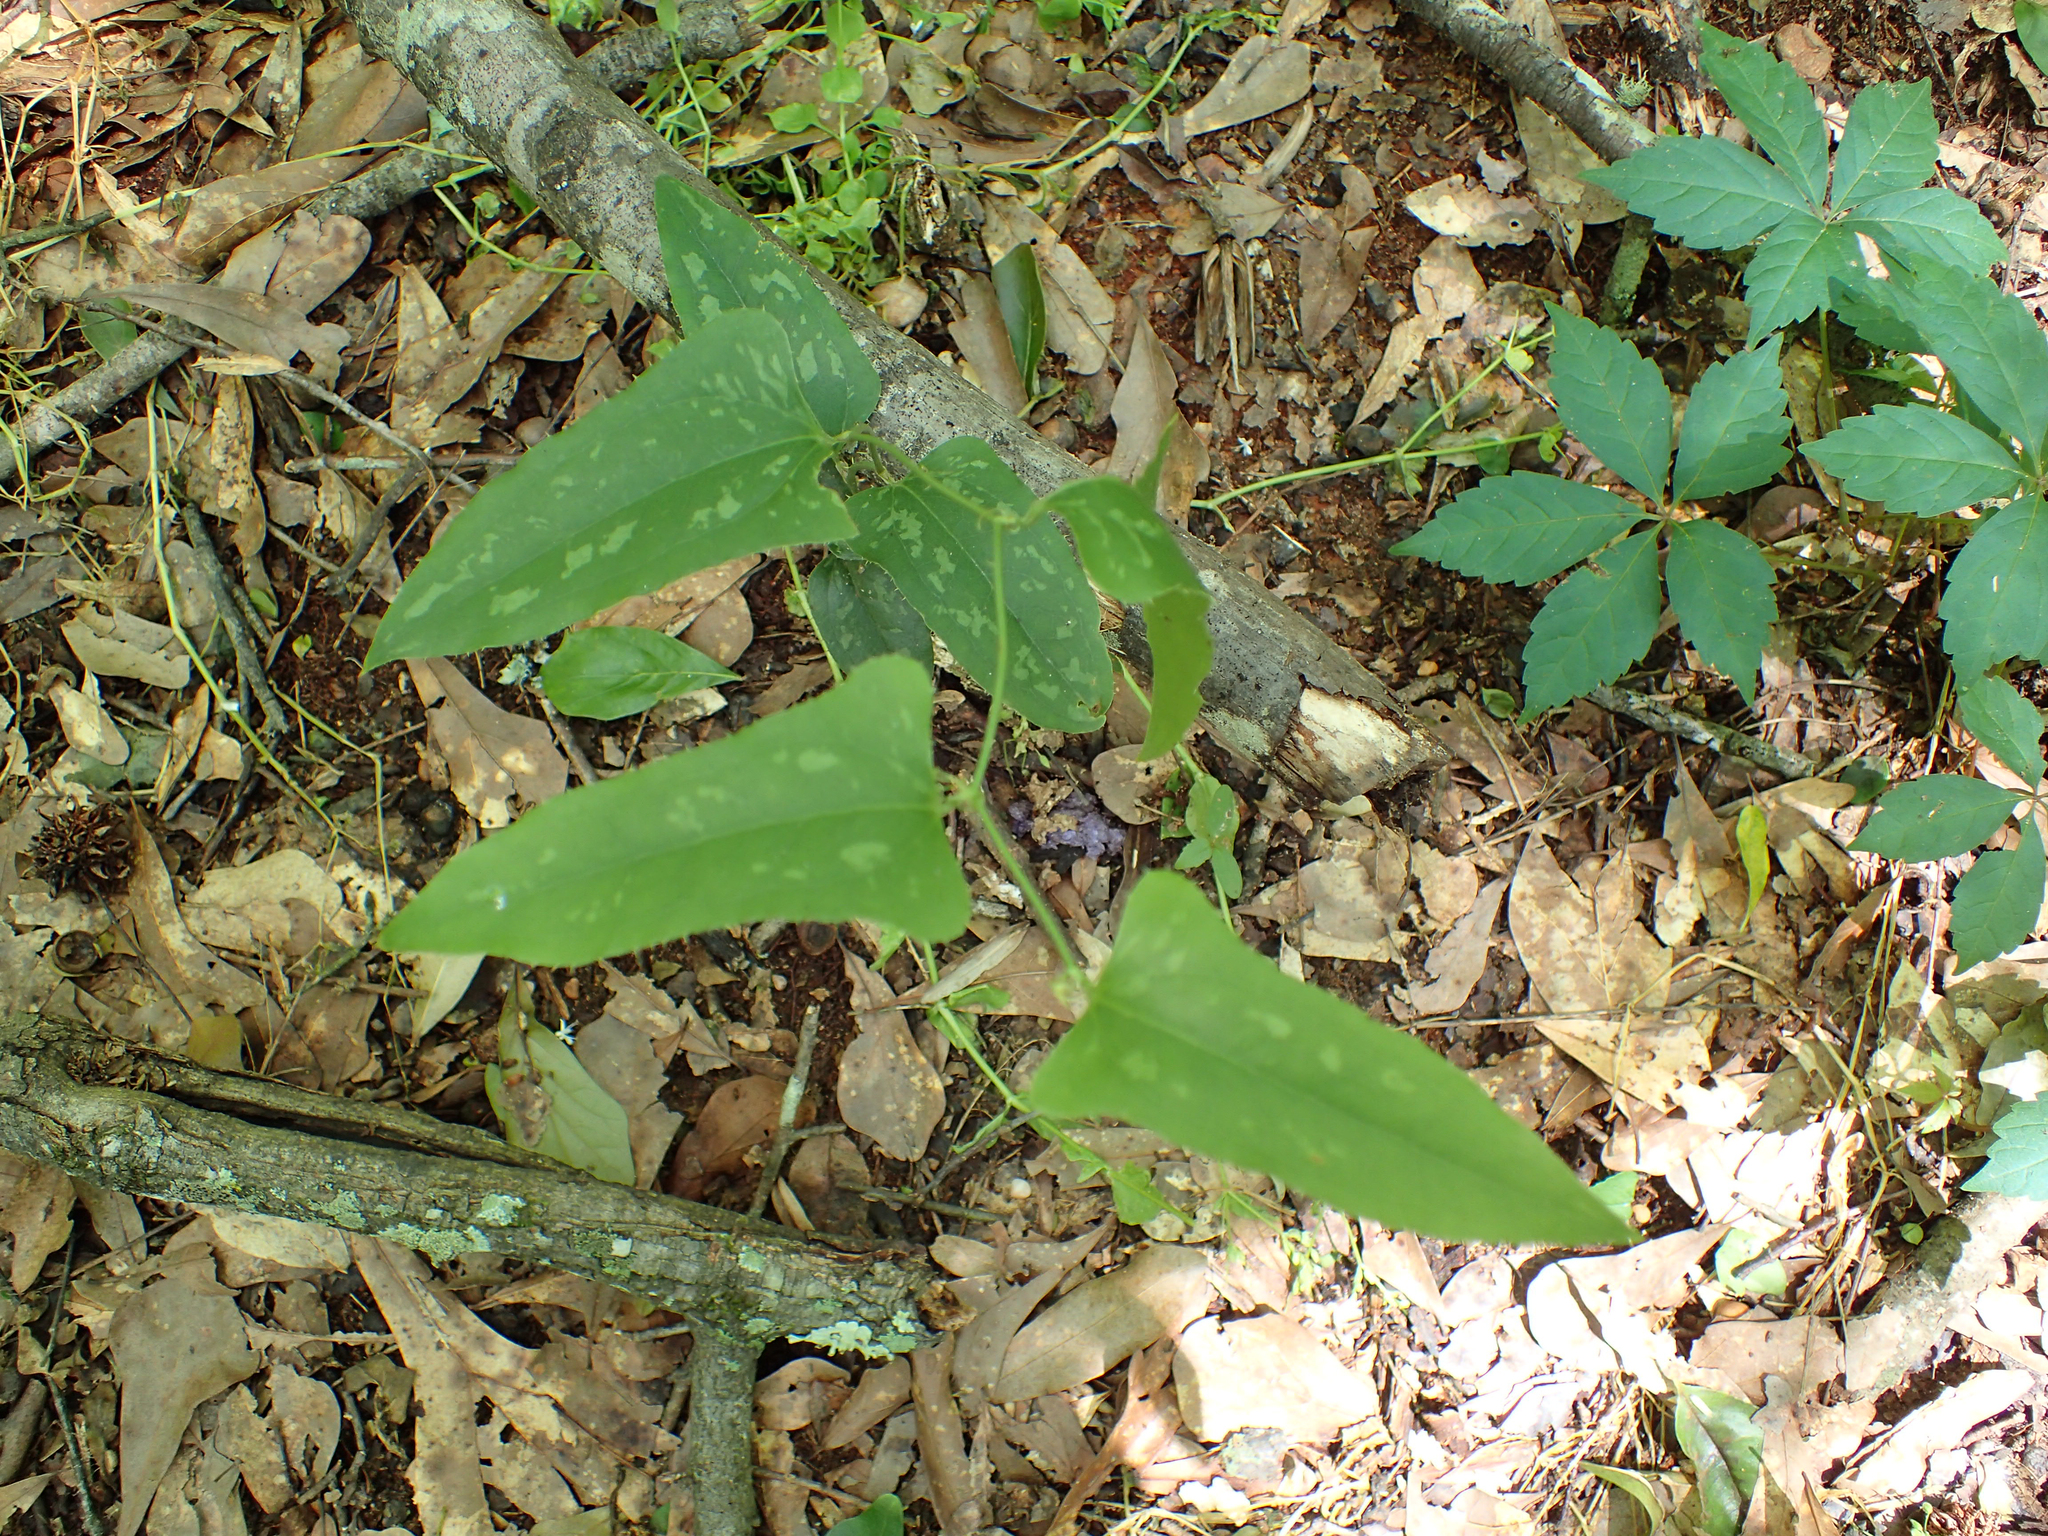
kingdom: Plantae
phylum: Tracheophyta
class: Liliopsida
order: Liliales
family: Smilacaceae
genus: Smilax
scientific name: Smilax bona-nox
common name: Catbrier
